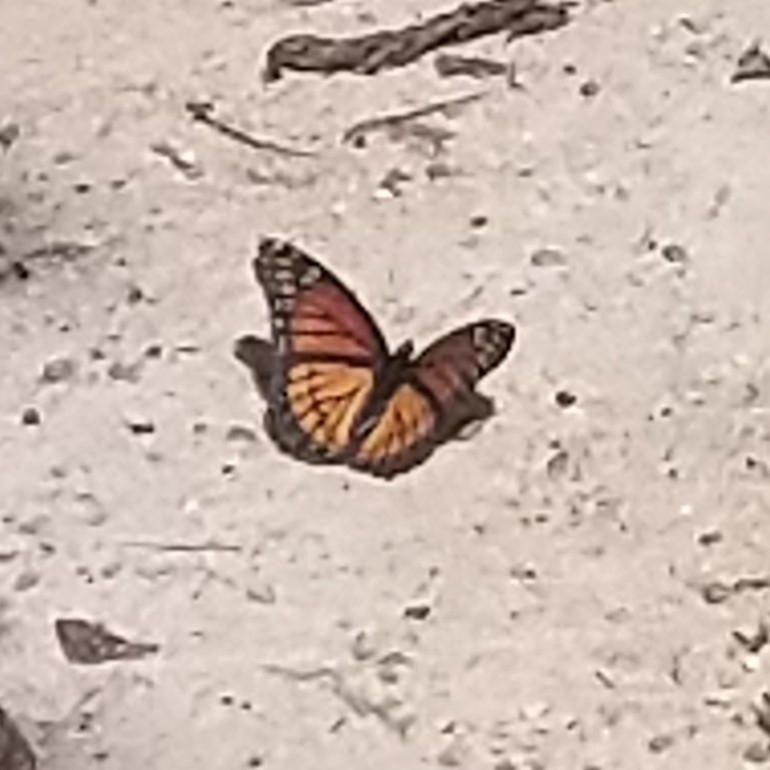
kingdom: Animalia
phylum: Arthropoda
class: Insecta
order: Lepidoptera
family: Nymphalidae
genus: Limenitis
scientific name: Limenitis archippus
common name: Viceroy
